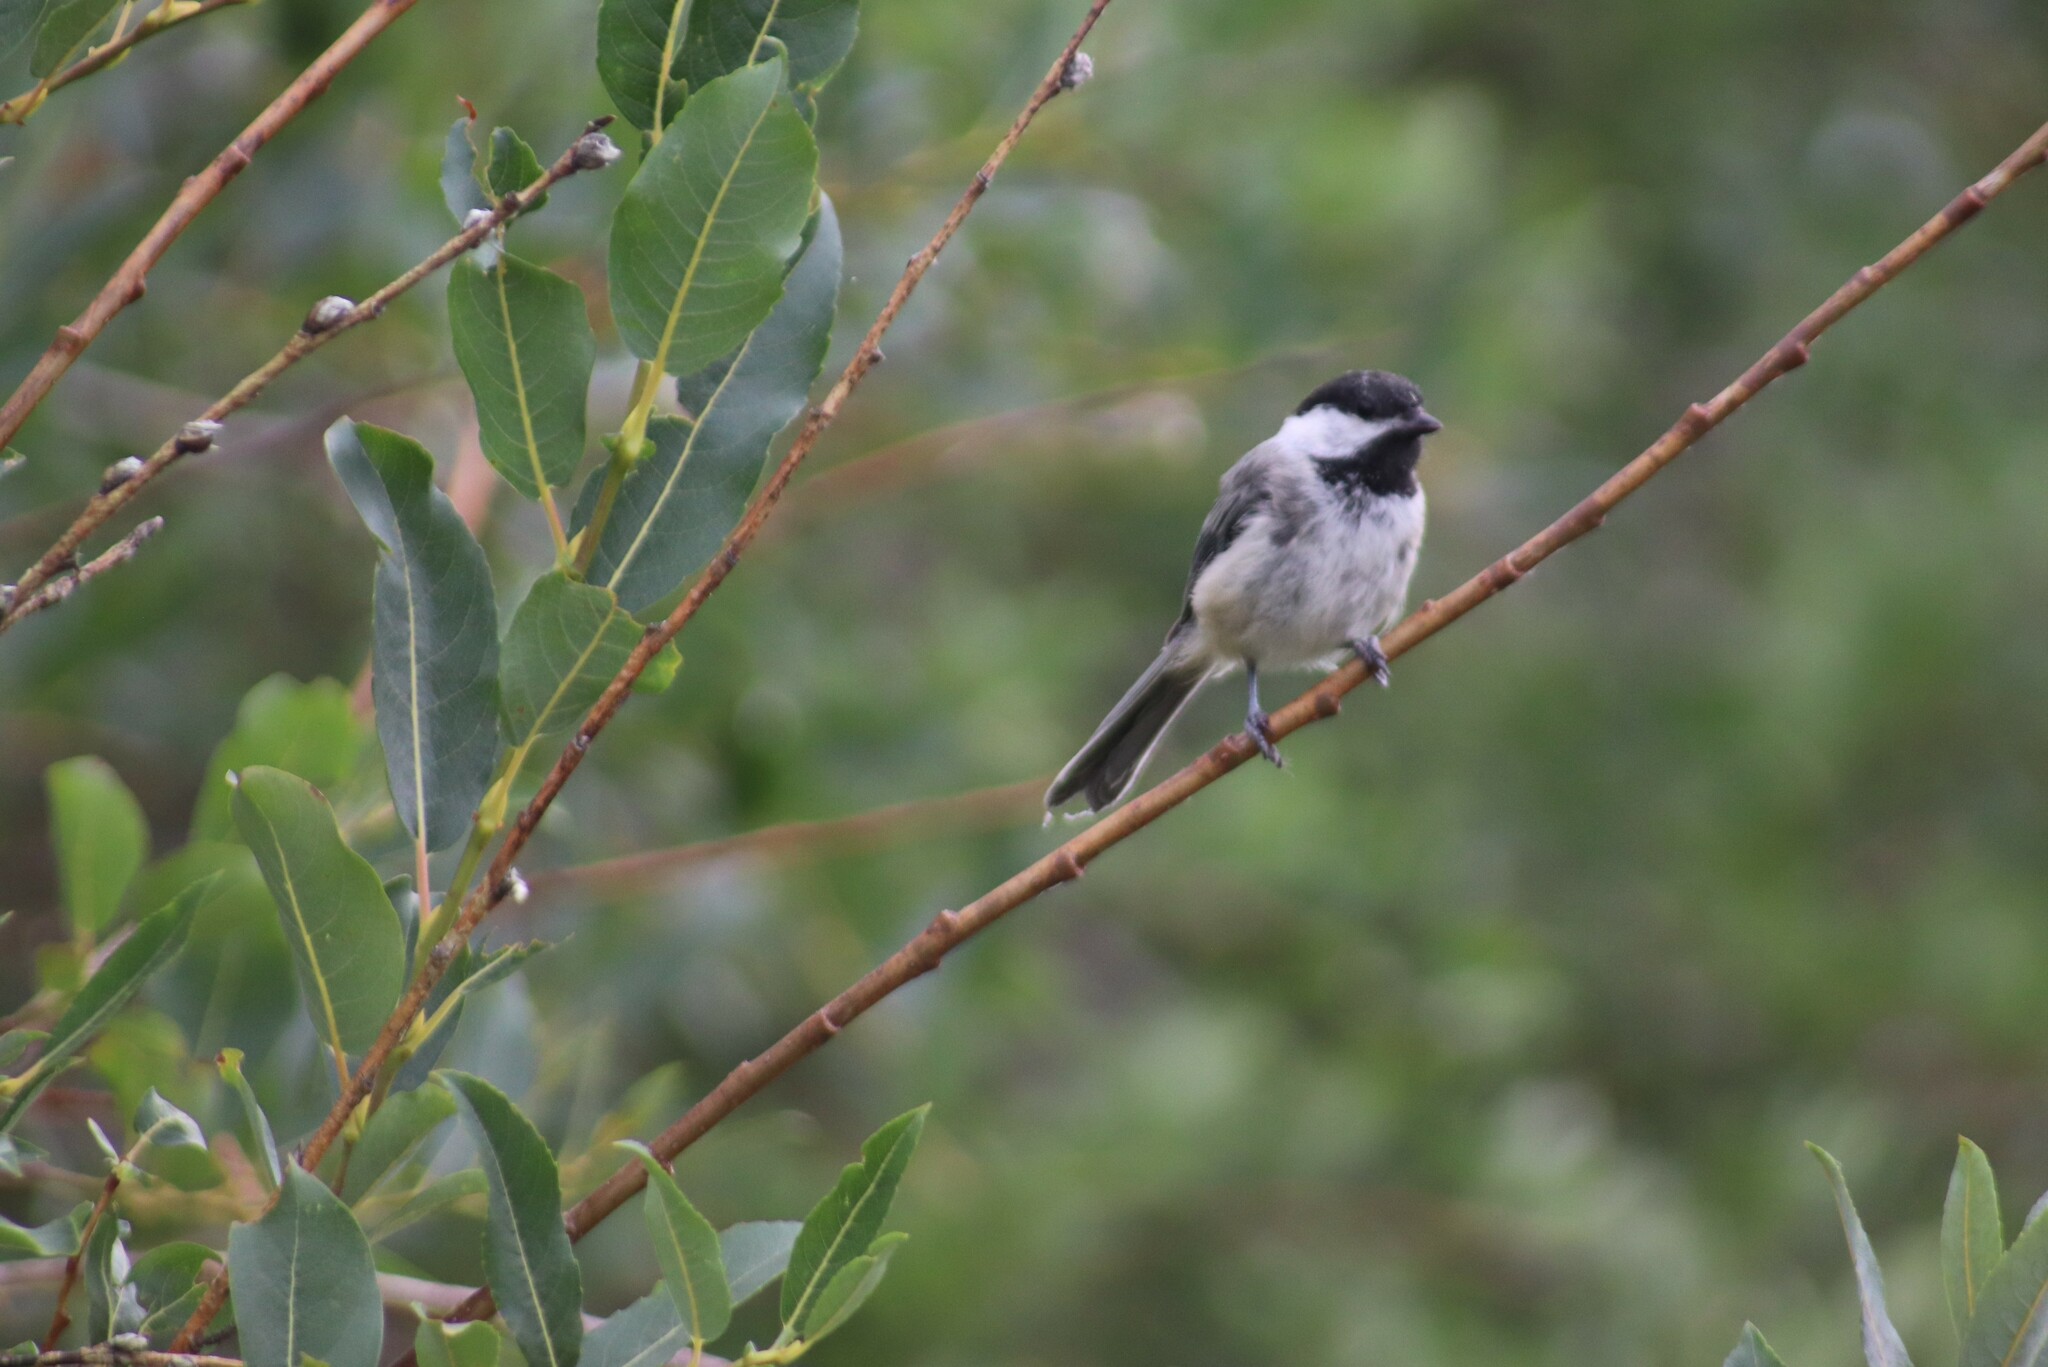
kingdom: Animalia
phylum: Chordata
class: Aves
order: Passeriformes
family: Paridae
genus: Poecile
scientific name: Poecile atricapillus
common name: Black-capped chickadee
